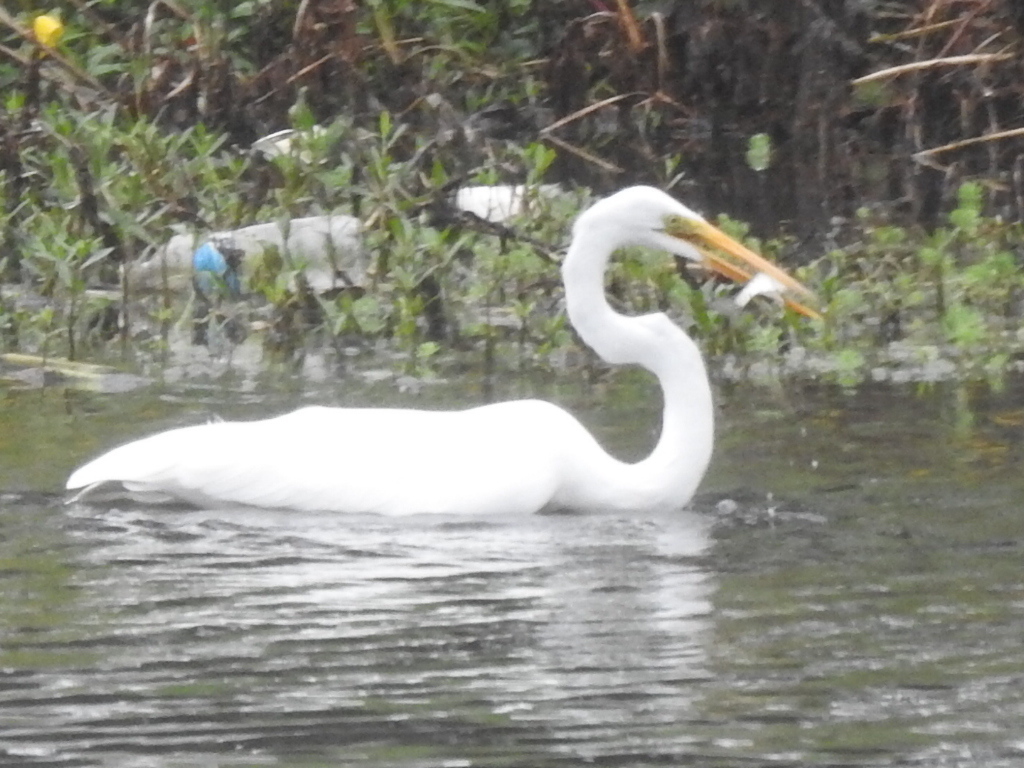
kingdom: Animalia
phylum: Chordata
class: Aves
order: Pelecaniformes
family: Ardeidae
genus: Ardea
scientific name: Ardea alba
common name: Great egret
